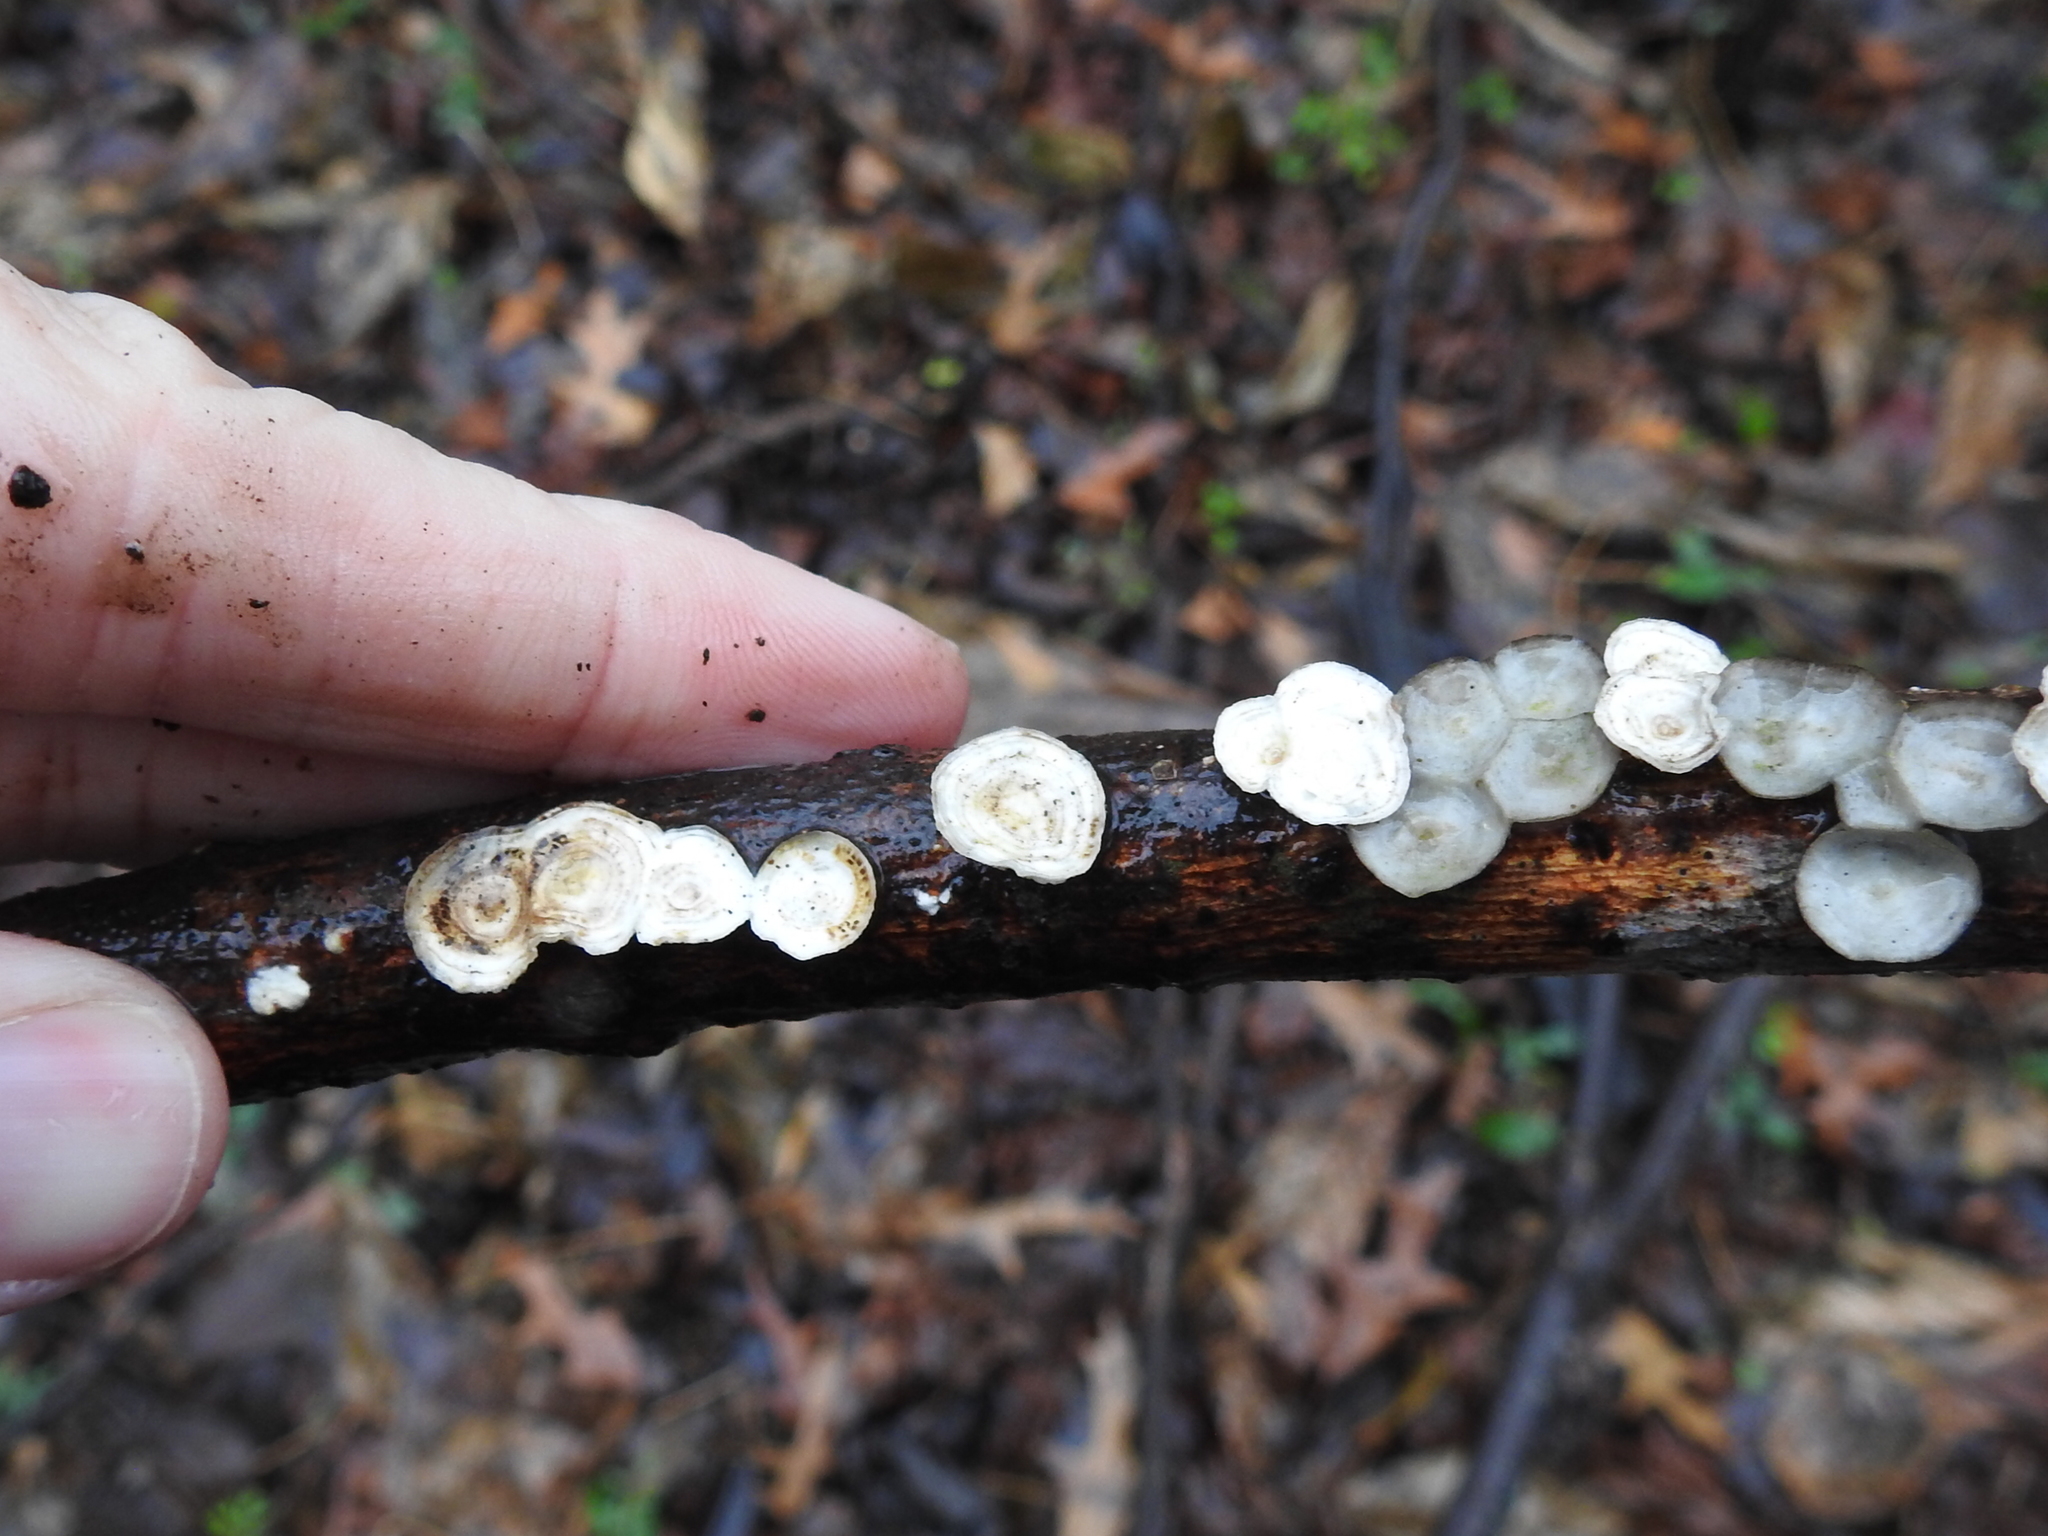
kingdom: Fungi
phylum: Basidiomycota
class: Agaricomycetes
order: Polyporales
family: Polyporaceae
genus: Poronidulus
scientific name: Poronidulus conchifer
